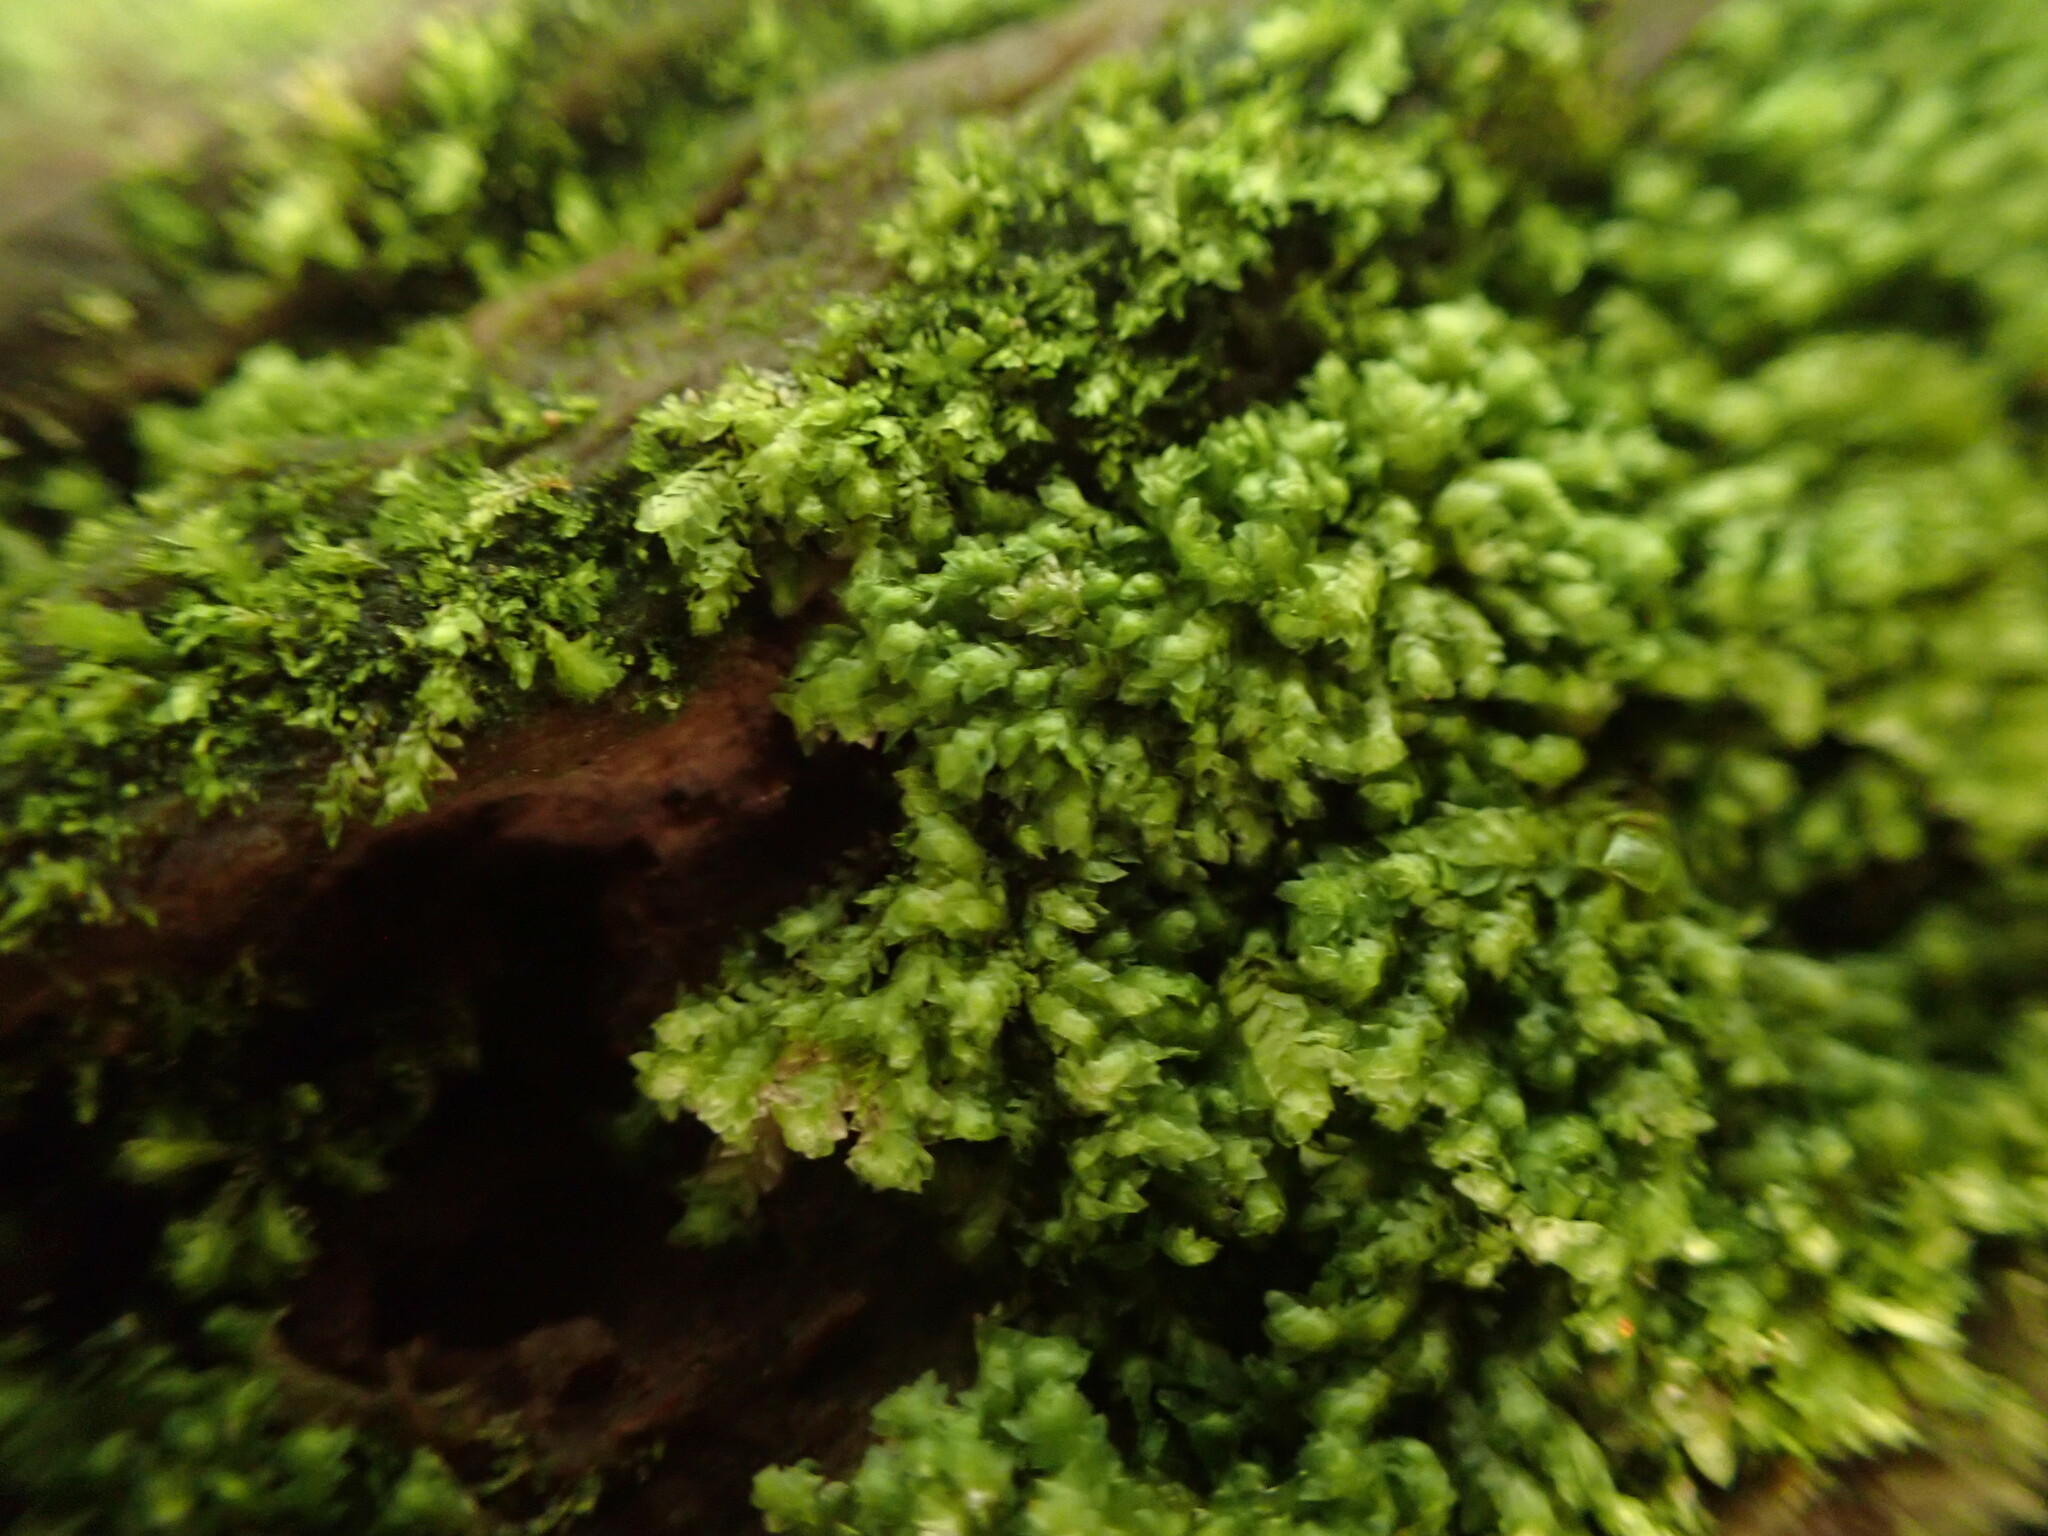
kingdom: Plantae
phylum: Marchantiophyta
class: Jungermanniopsida
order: Jungermanniales
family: Scapaniaceae
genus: Scapania
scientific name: Scapania umbrosa
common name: Shady earwort
